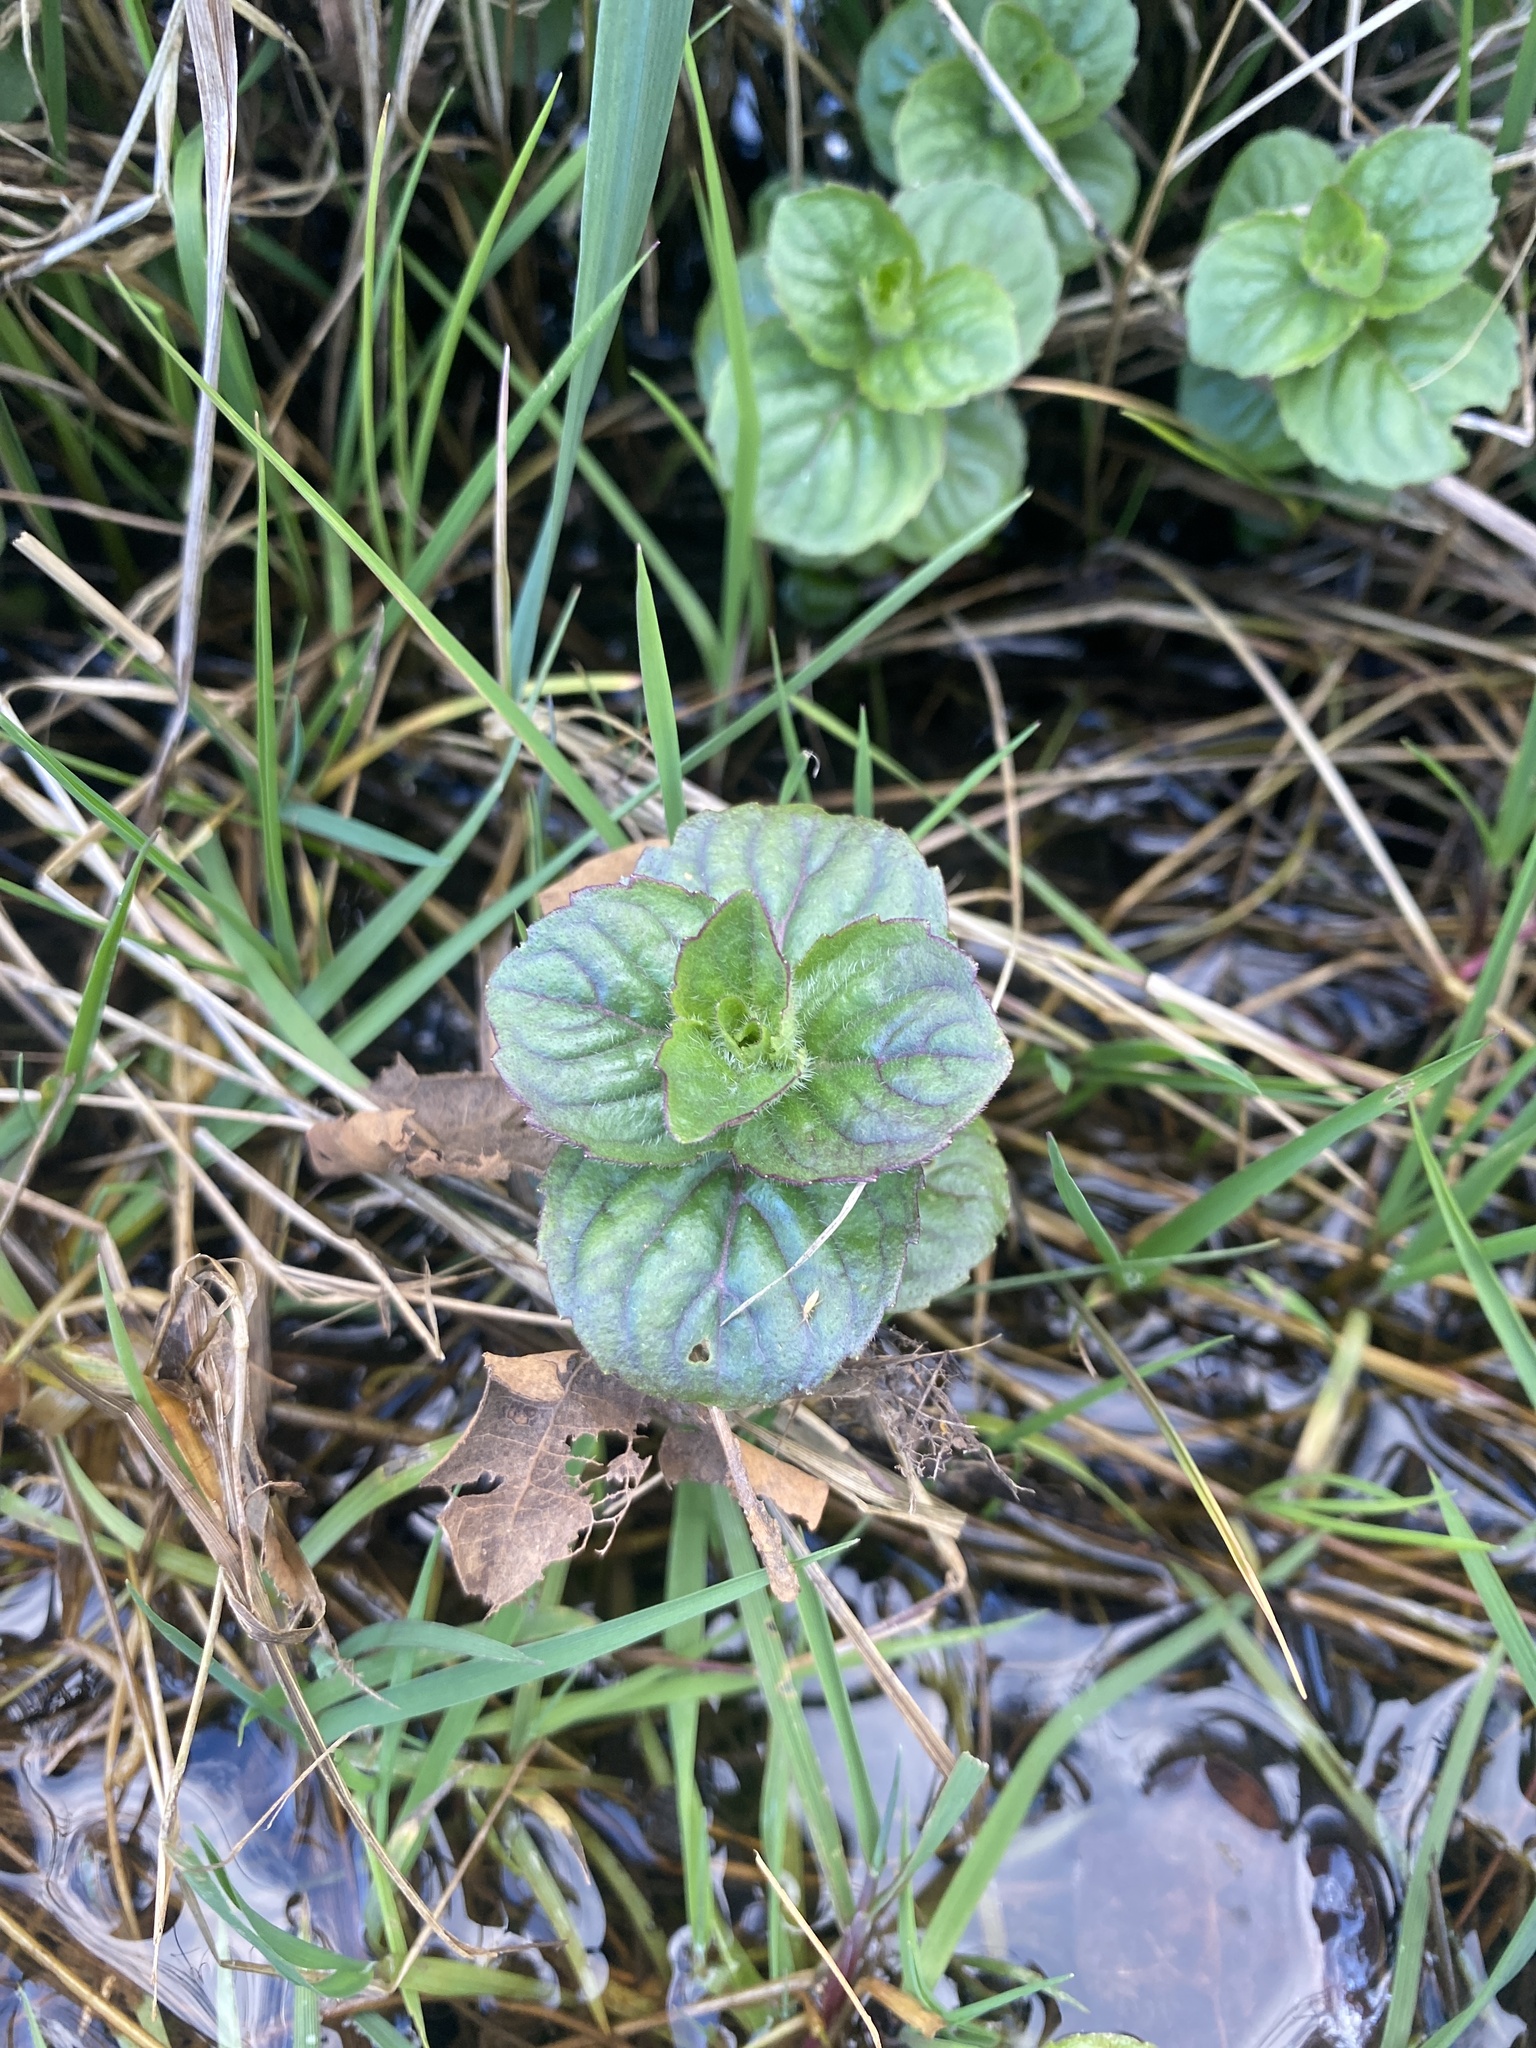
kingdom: Plantae
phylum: Tracheophyta
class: Magnoliopsida
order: Lamiales
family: Lamiaceae
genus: Mentha
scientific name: Mentha aquatica
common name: Water mint
